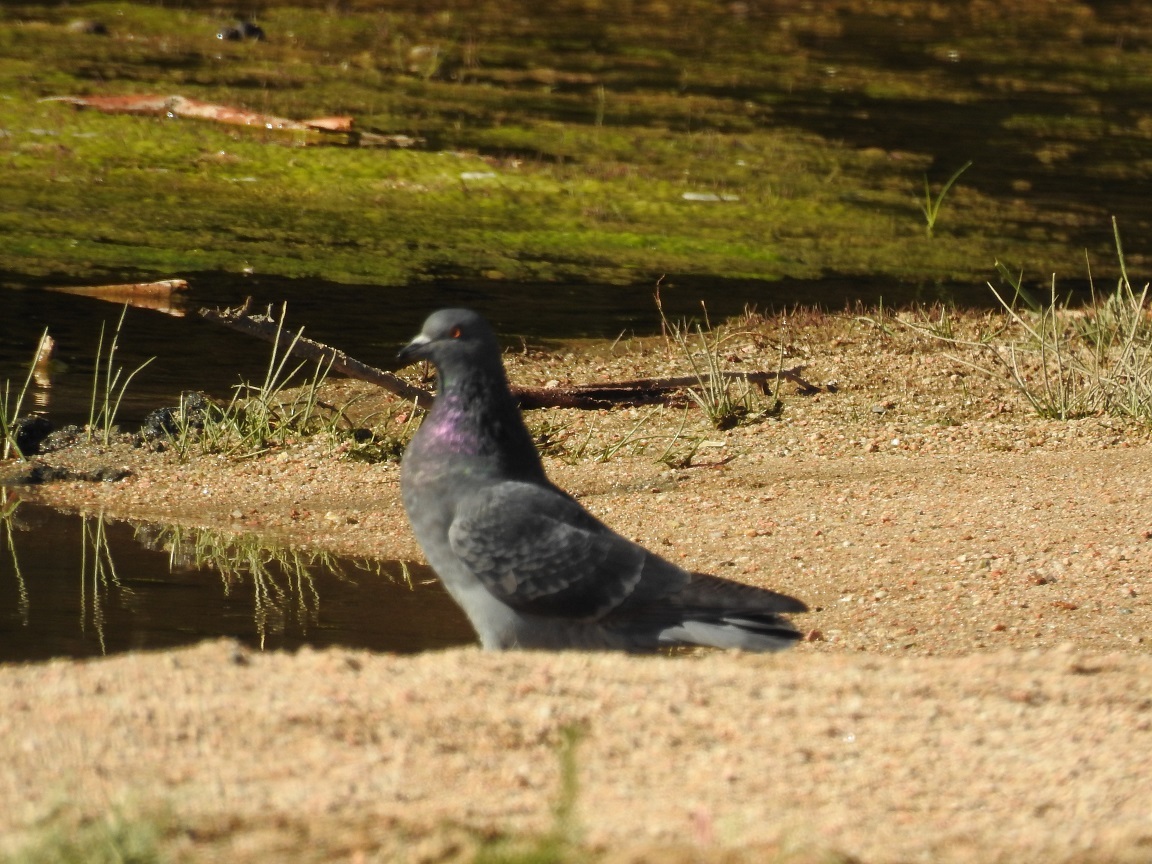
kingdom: Animalia
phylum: Chordata
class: Aves
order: Columbiformes
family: Columbidae
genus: Columba
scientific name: Columba livia
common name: Rock pigeon
